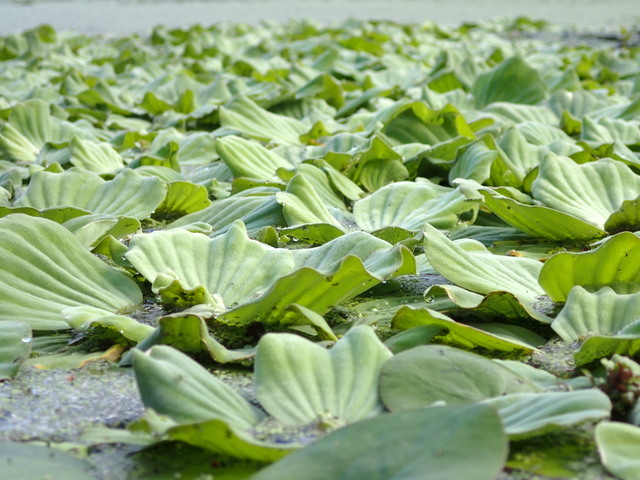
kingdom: Plantae
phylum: Tracheophyta
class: Liliopsida
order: Alismatales
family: Araceae
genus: Pistia
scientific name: Pistia stratiotes
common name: Water lettuce
